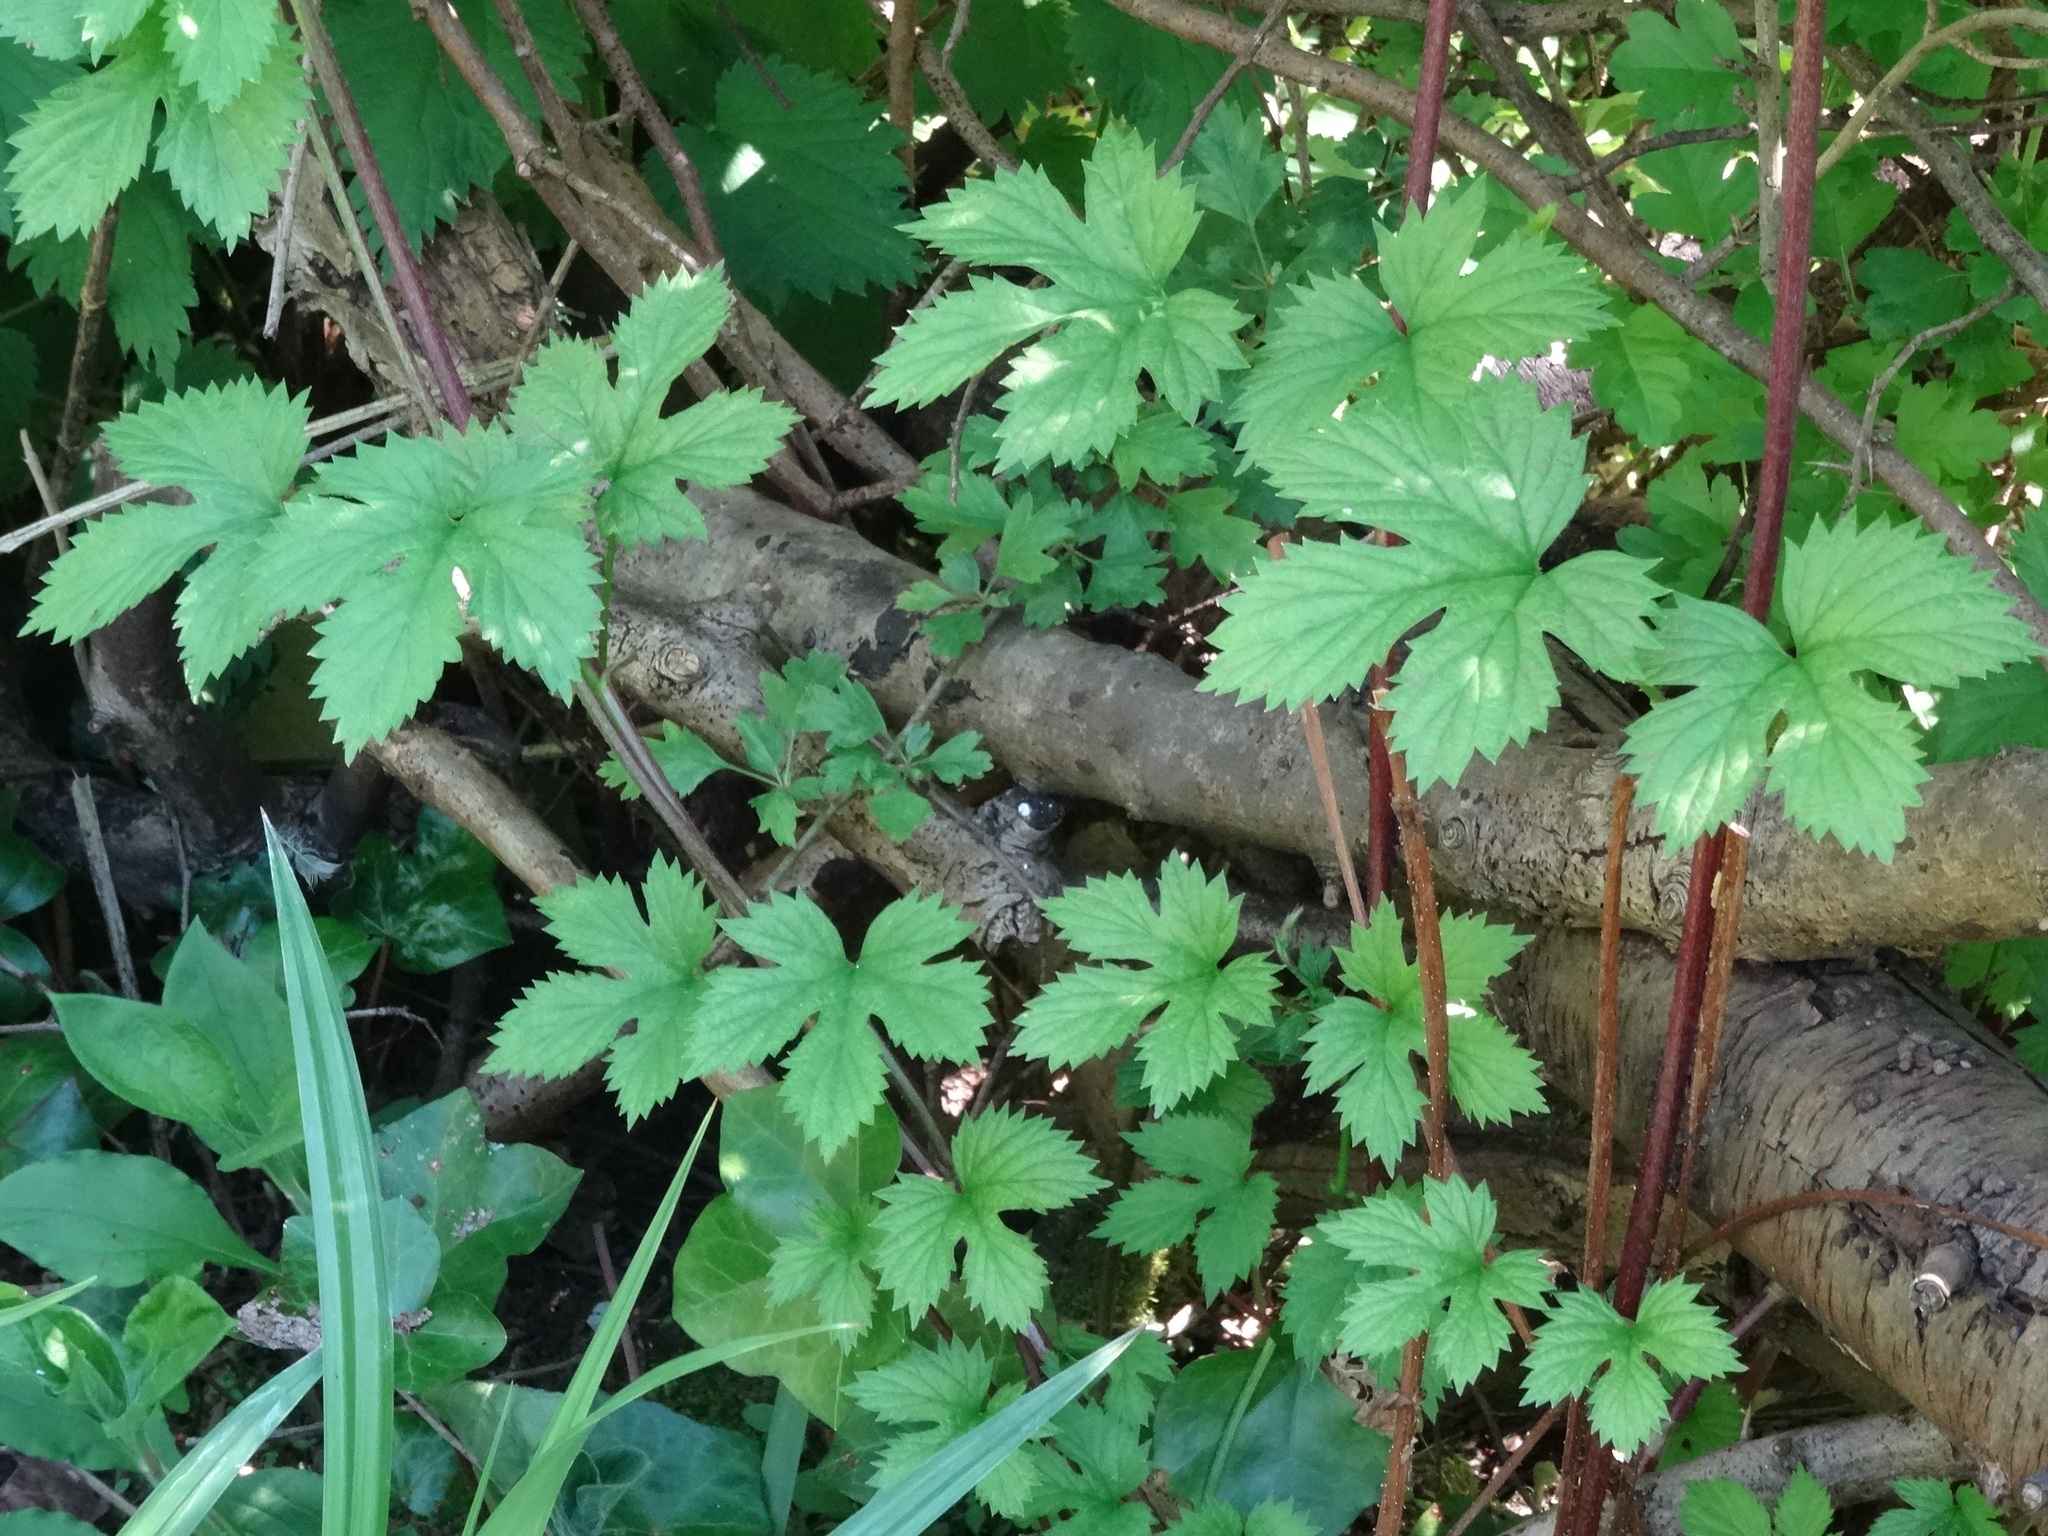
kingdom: Plantae
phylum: Tracheophyta
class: Magnoliopsida
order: Rosales
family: Cannabaceae
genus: Humulus
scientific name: Humulus lupulus
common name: Hop
